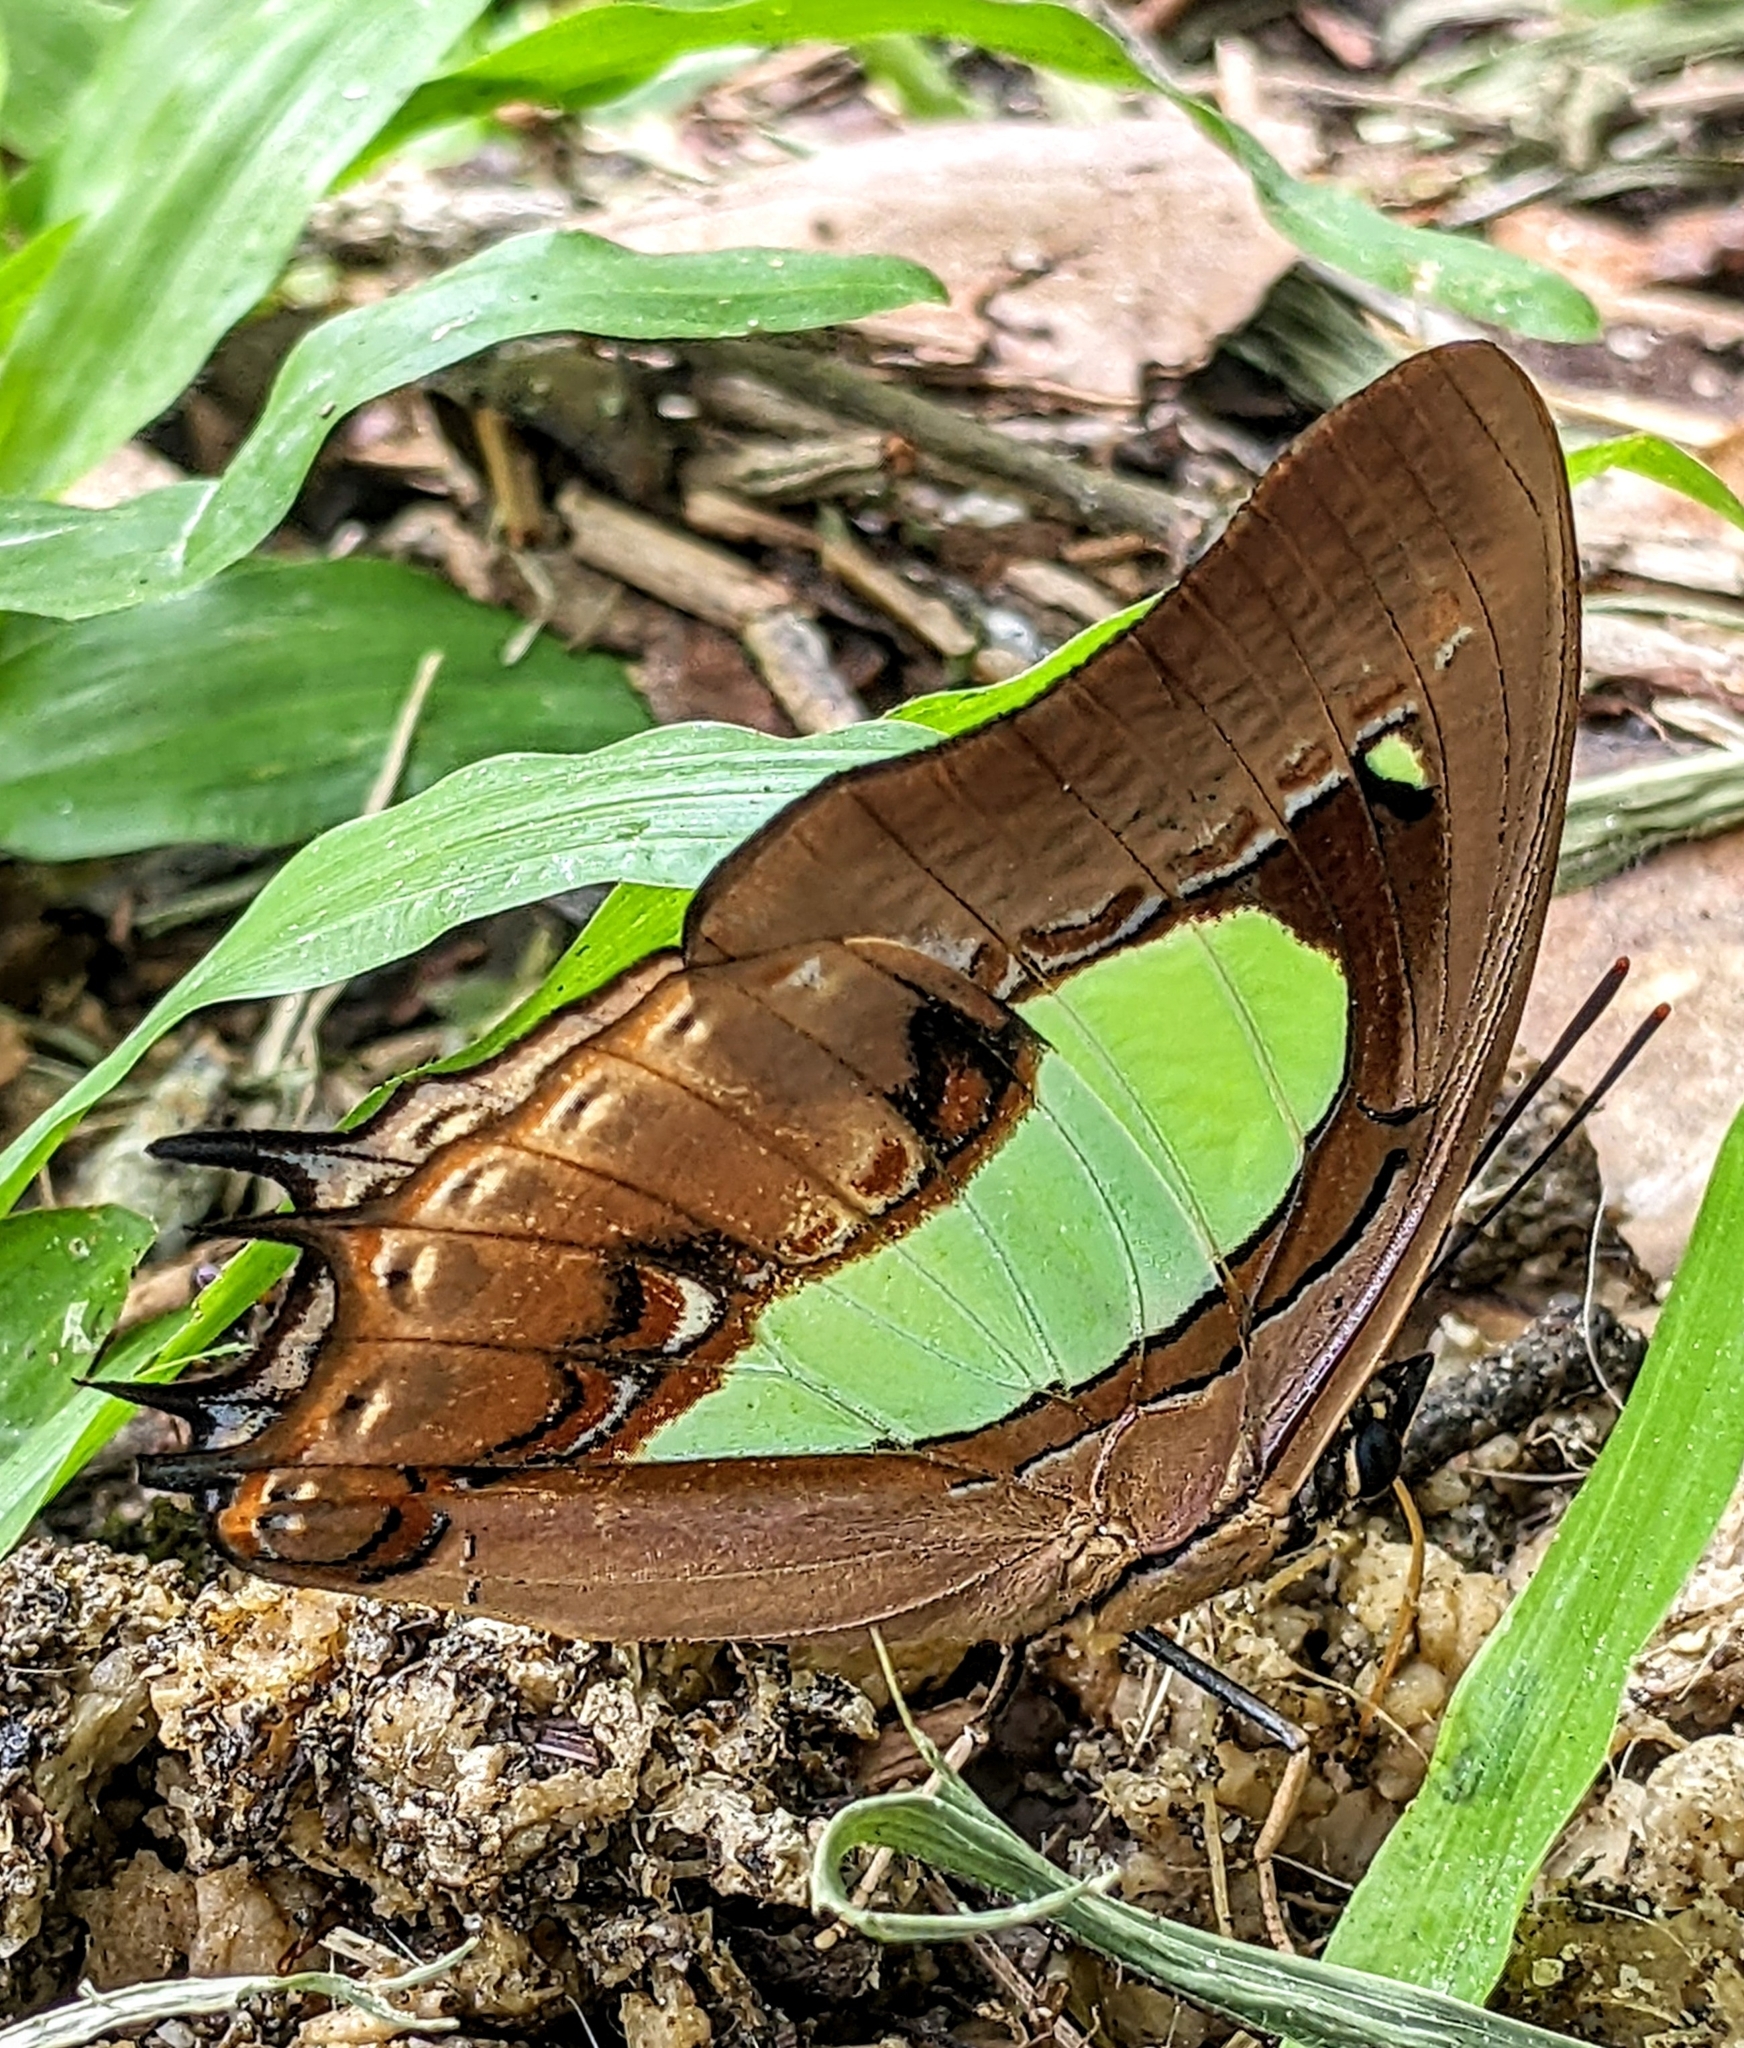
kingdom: Animalia
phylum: Arthropoda
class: Insecta
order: Lepidoptera
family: Nymphalidae
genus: Polyura
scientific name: Polyura hebe
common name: Plain nawab
